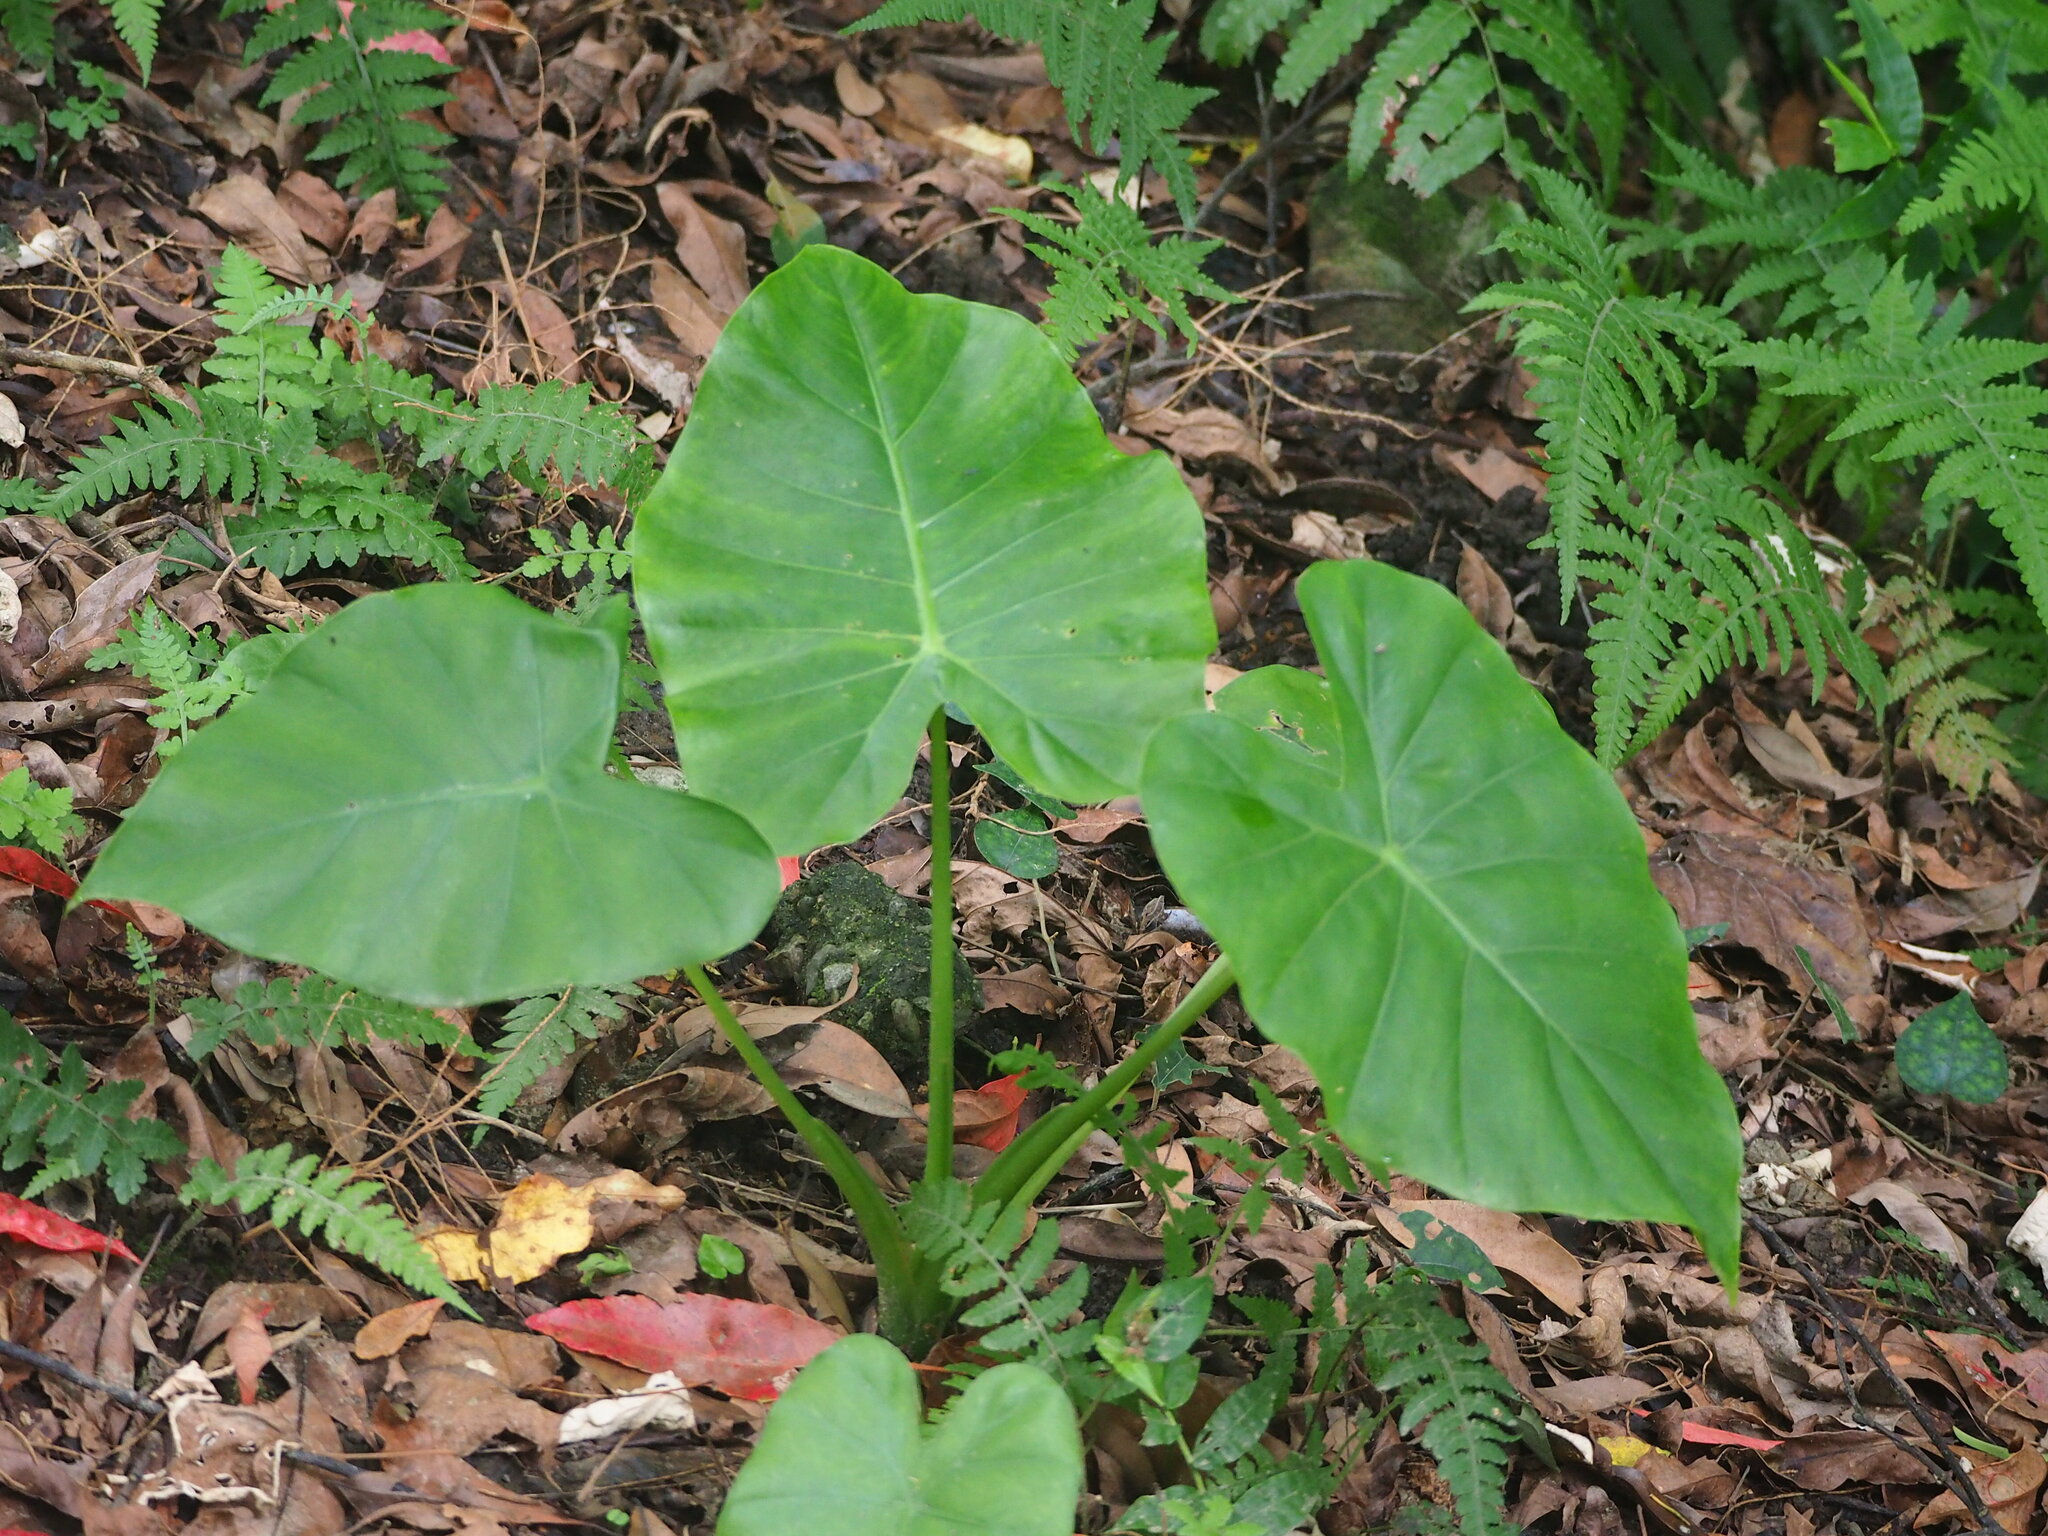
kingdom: Plantae
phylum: Tracheophyta
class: Liliopsida
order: Alismatales
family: Araceae
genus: Alocasia
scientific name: Alocasia odora
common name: Asian taro
